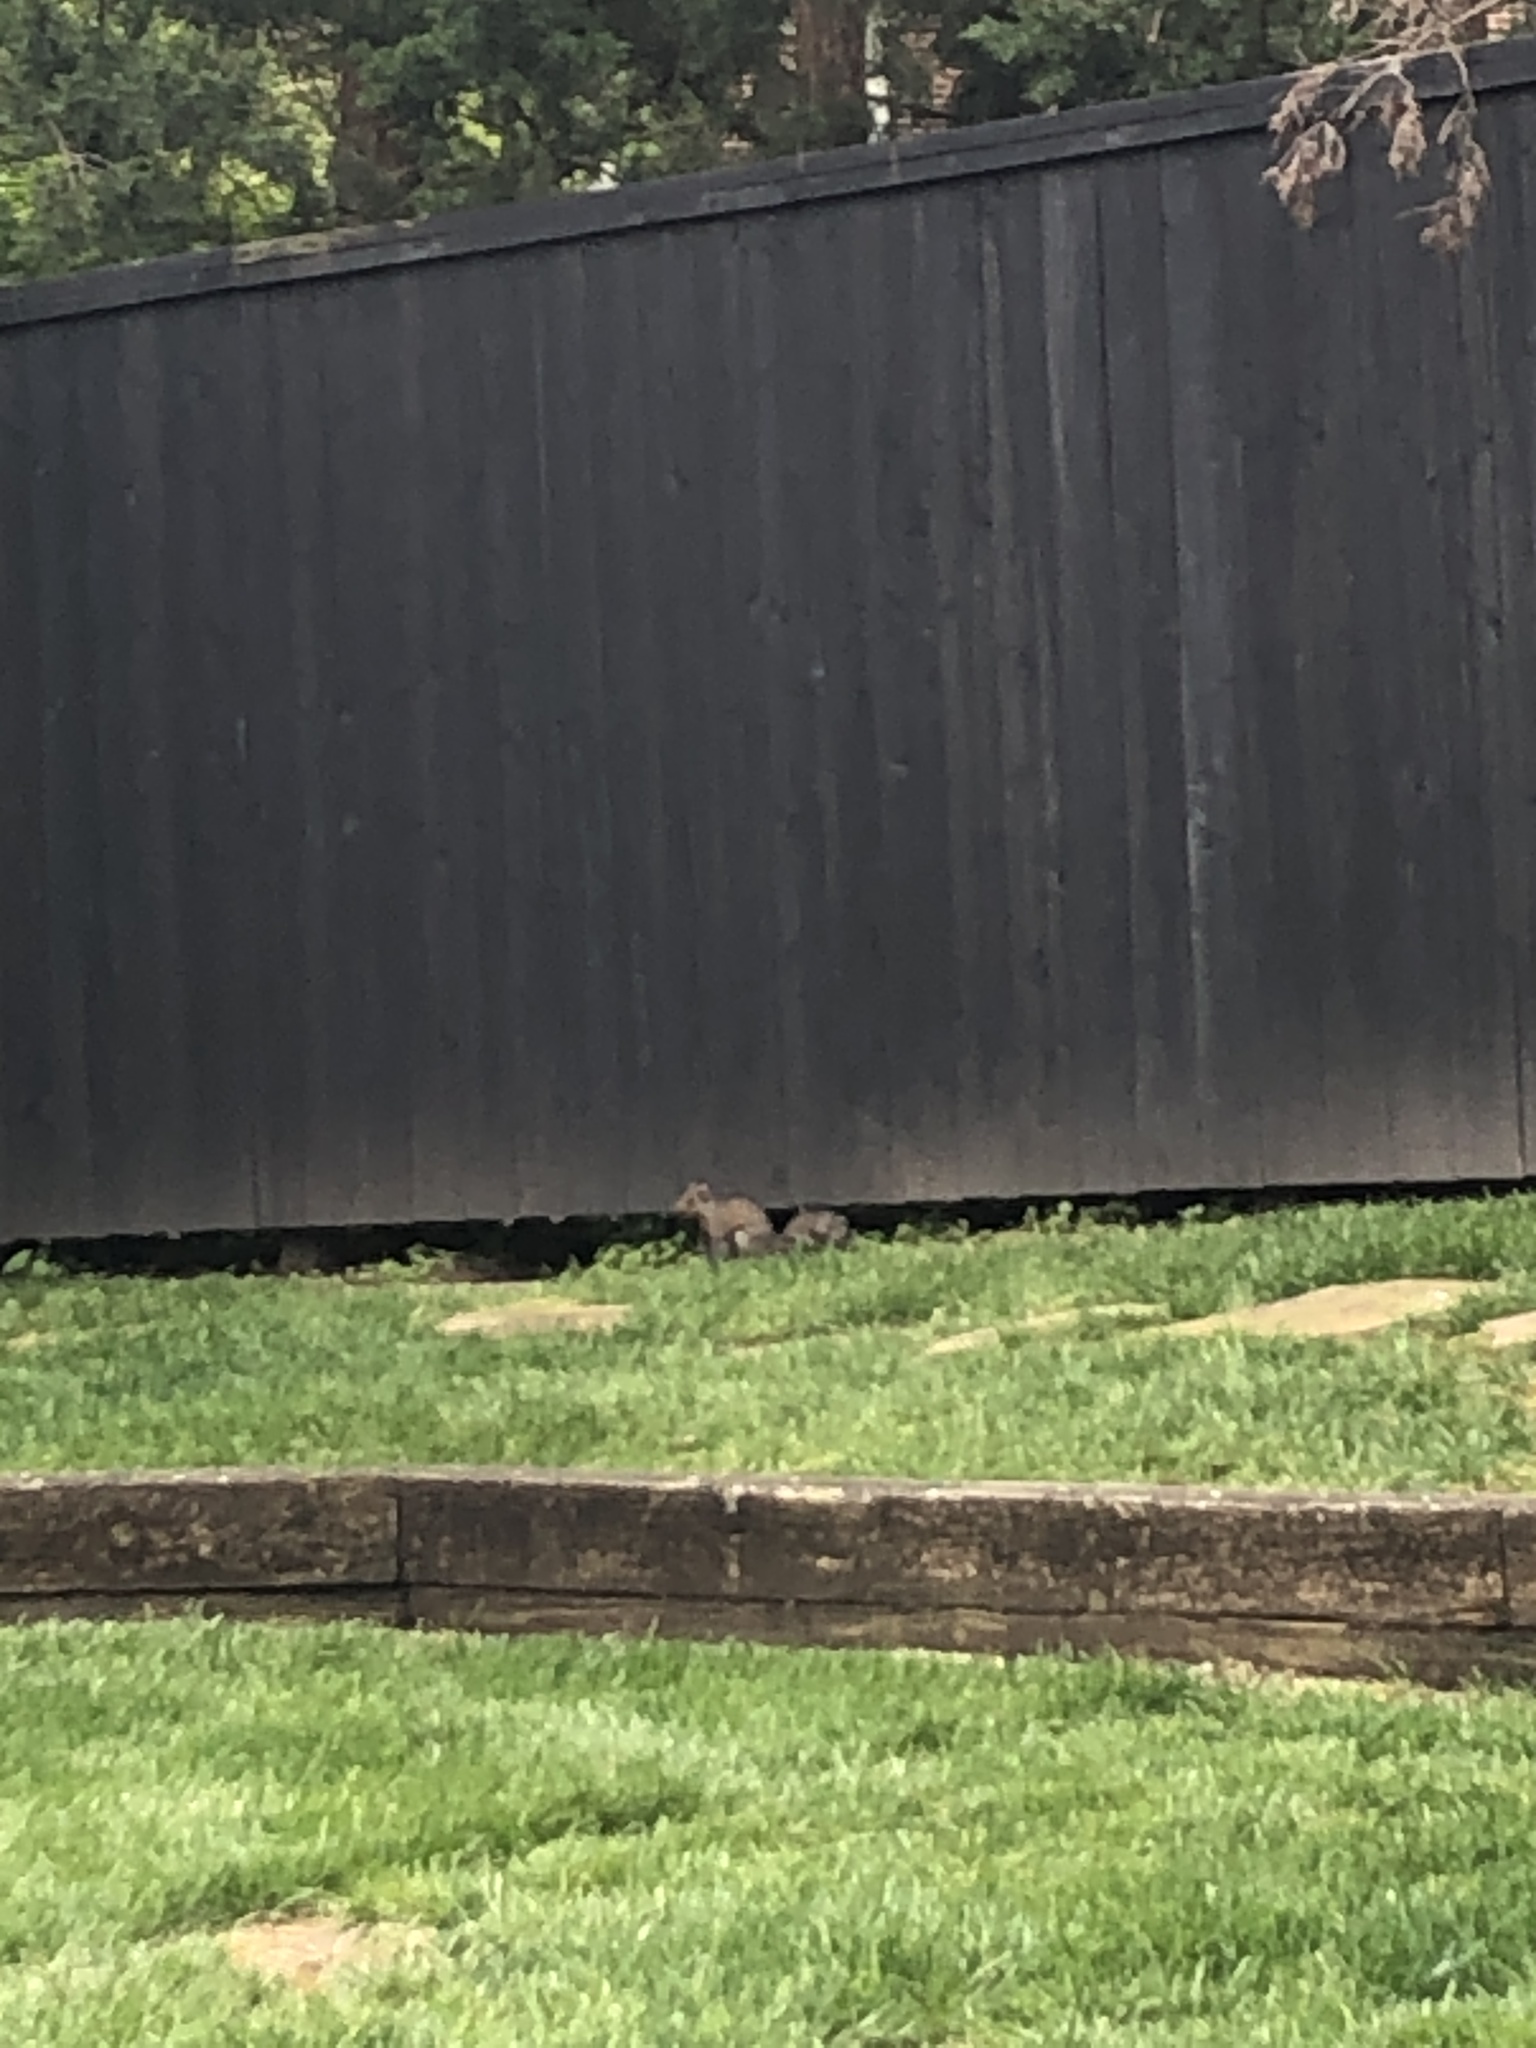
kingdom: Animalia
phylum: Chordata
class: Mammalia
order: Rodentia
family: Sciuridae
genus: Sciurus
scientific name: Sciurus carolinensis
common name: Eastern gray squirrel
